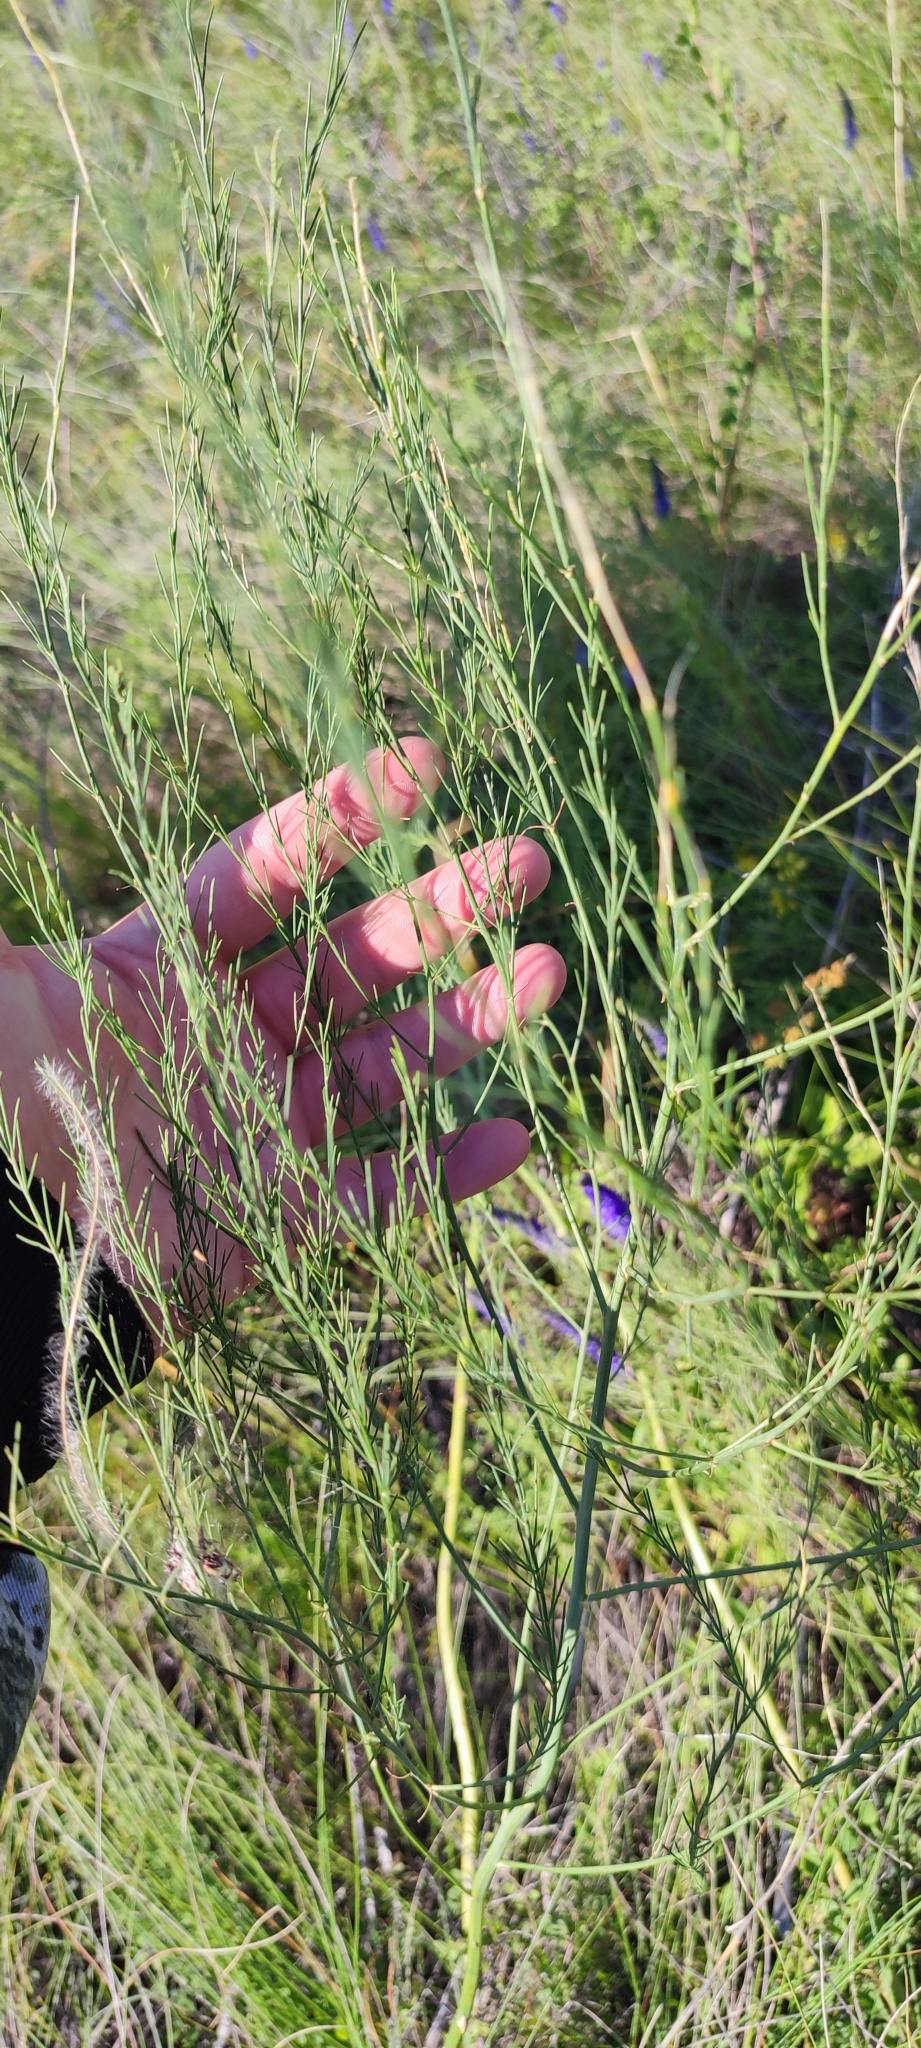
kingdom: Plantae
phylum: Tracheophyta
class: Liliopsida
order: Asparagales
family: Asparagaceae
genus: Asparagus
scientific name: Asparagus officinalis
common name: Garden asparagus
